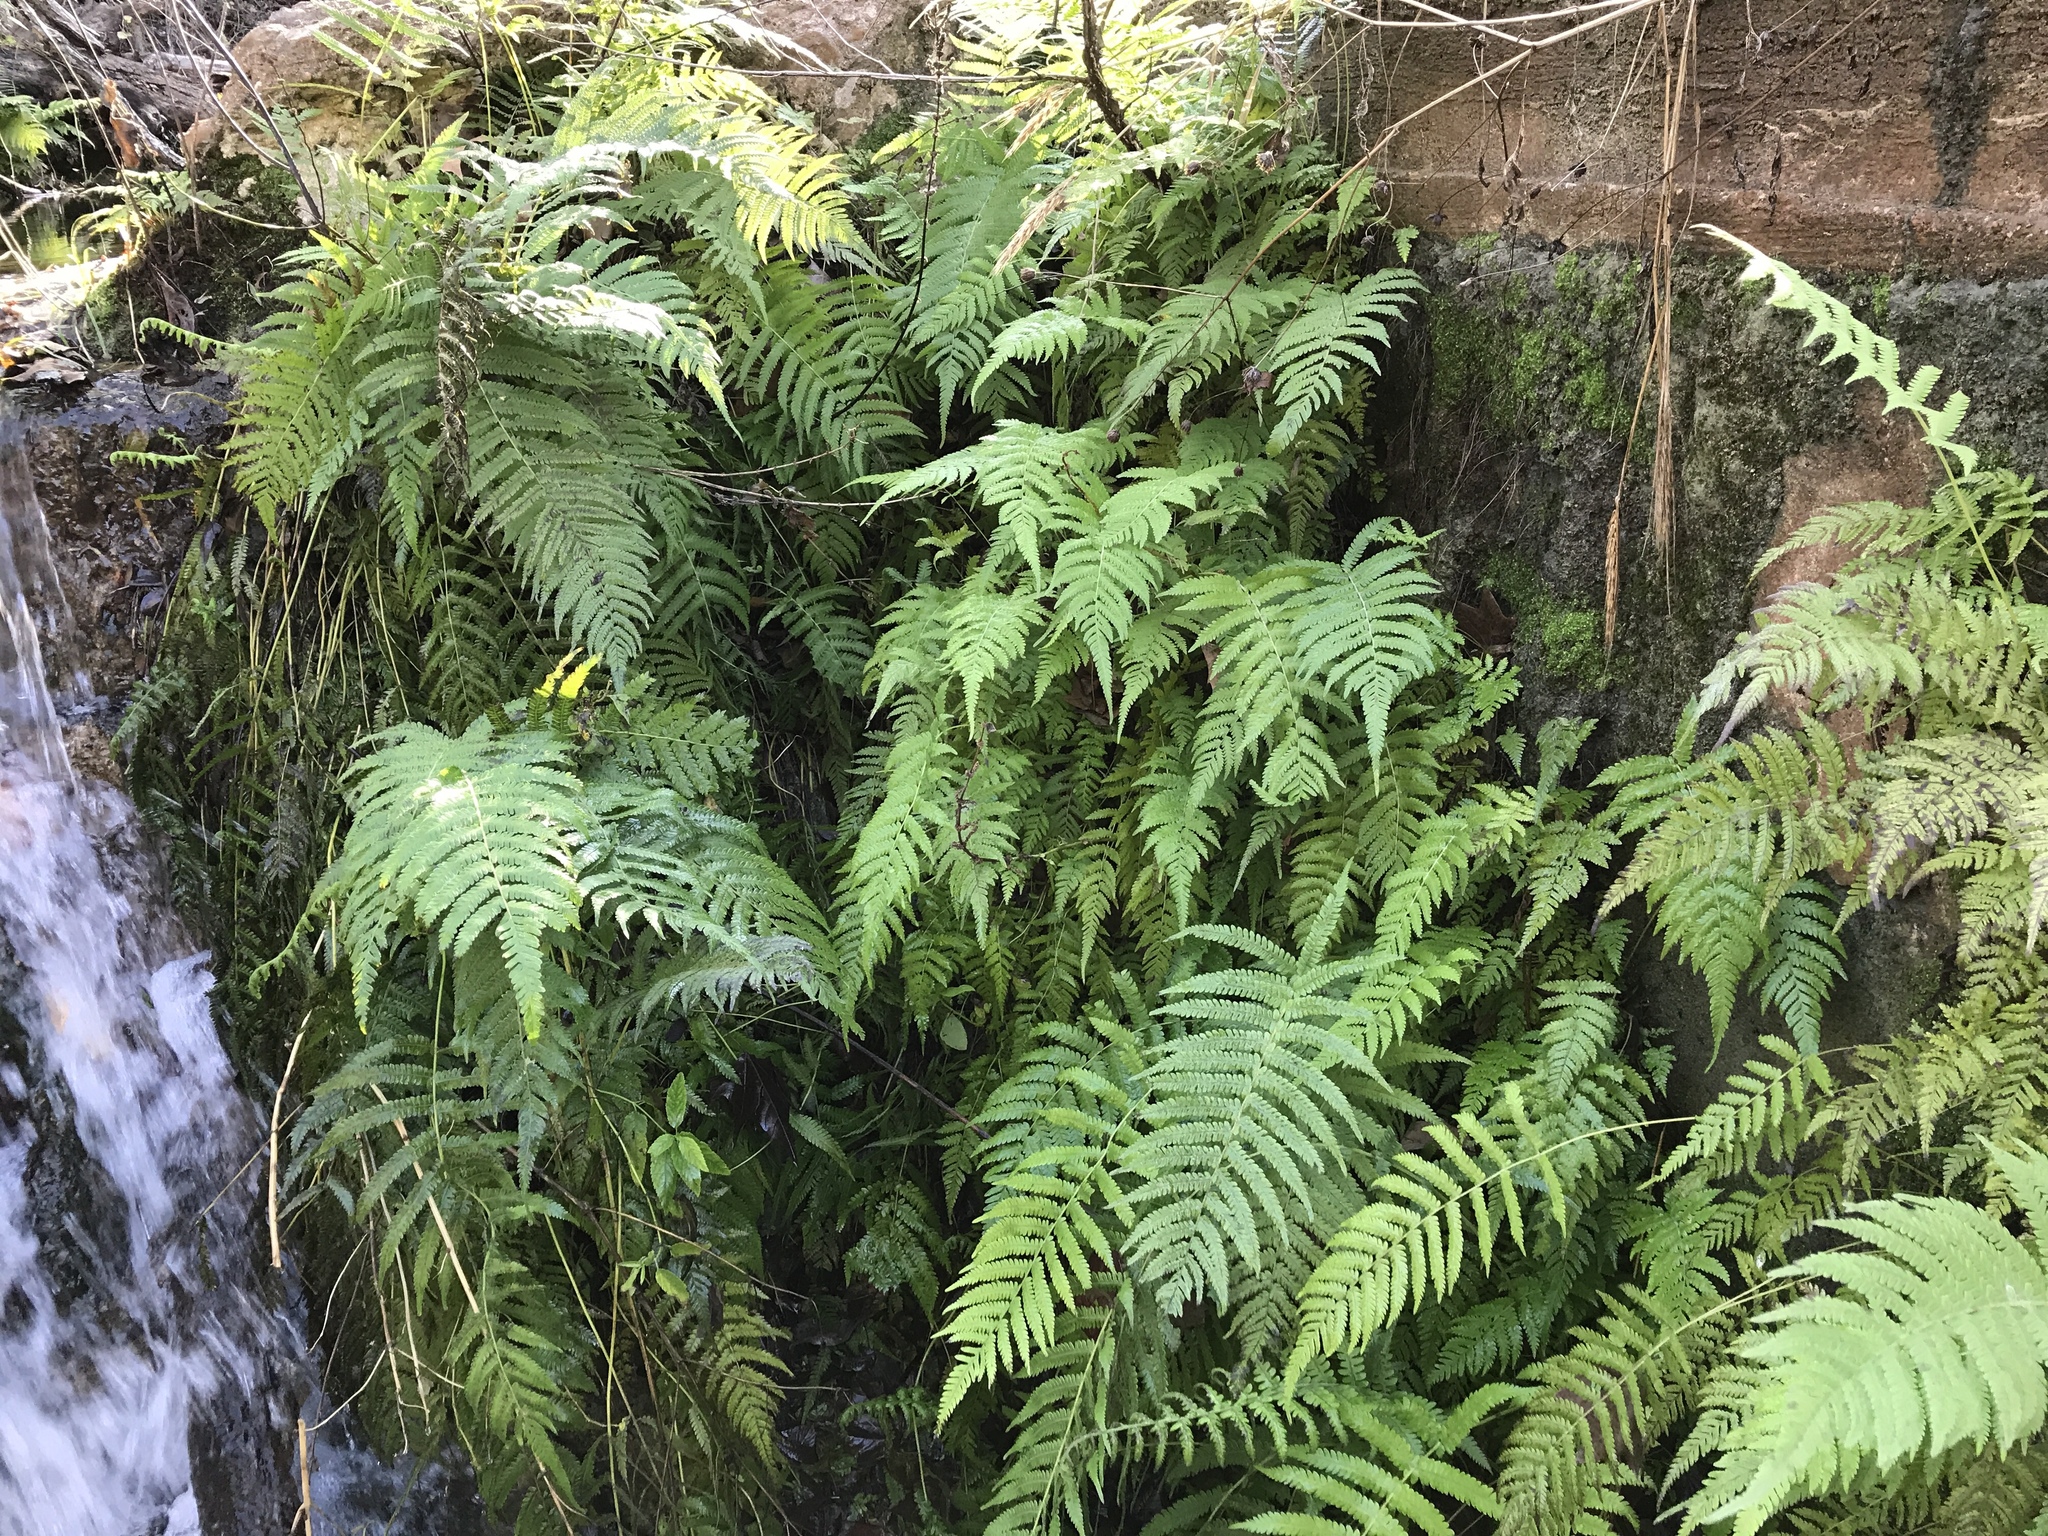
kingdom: Plantae
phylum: Tracheophyta
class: Polypodiopsida
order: Polypodiales
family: Thelypteridaceae
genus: Pelazoneuron
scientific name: Pelazoneuron ovatum
